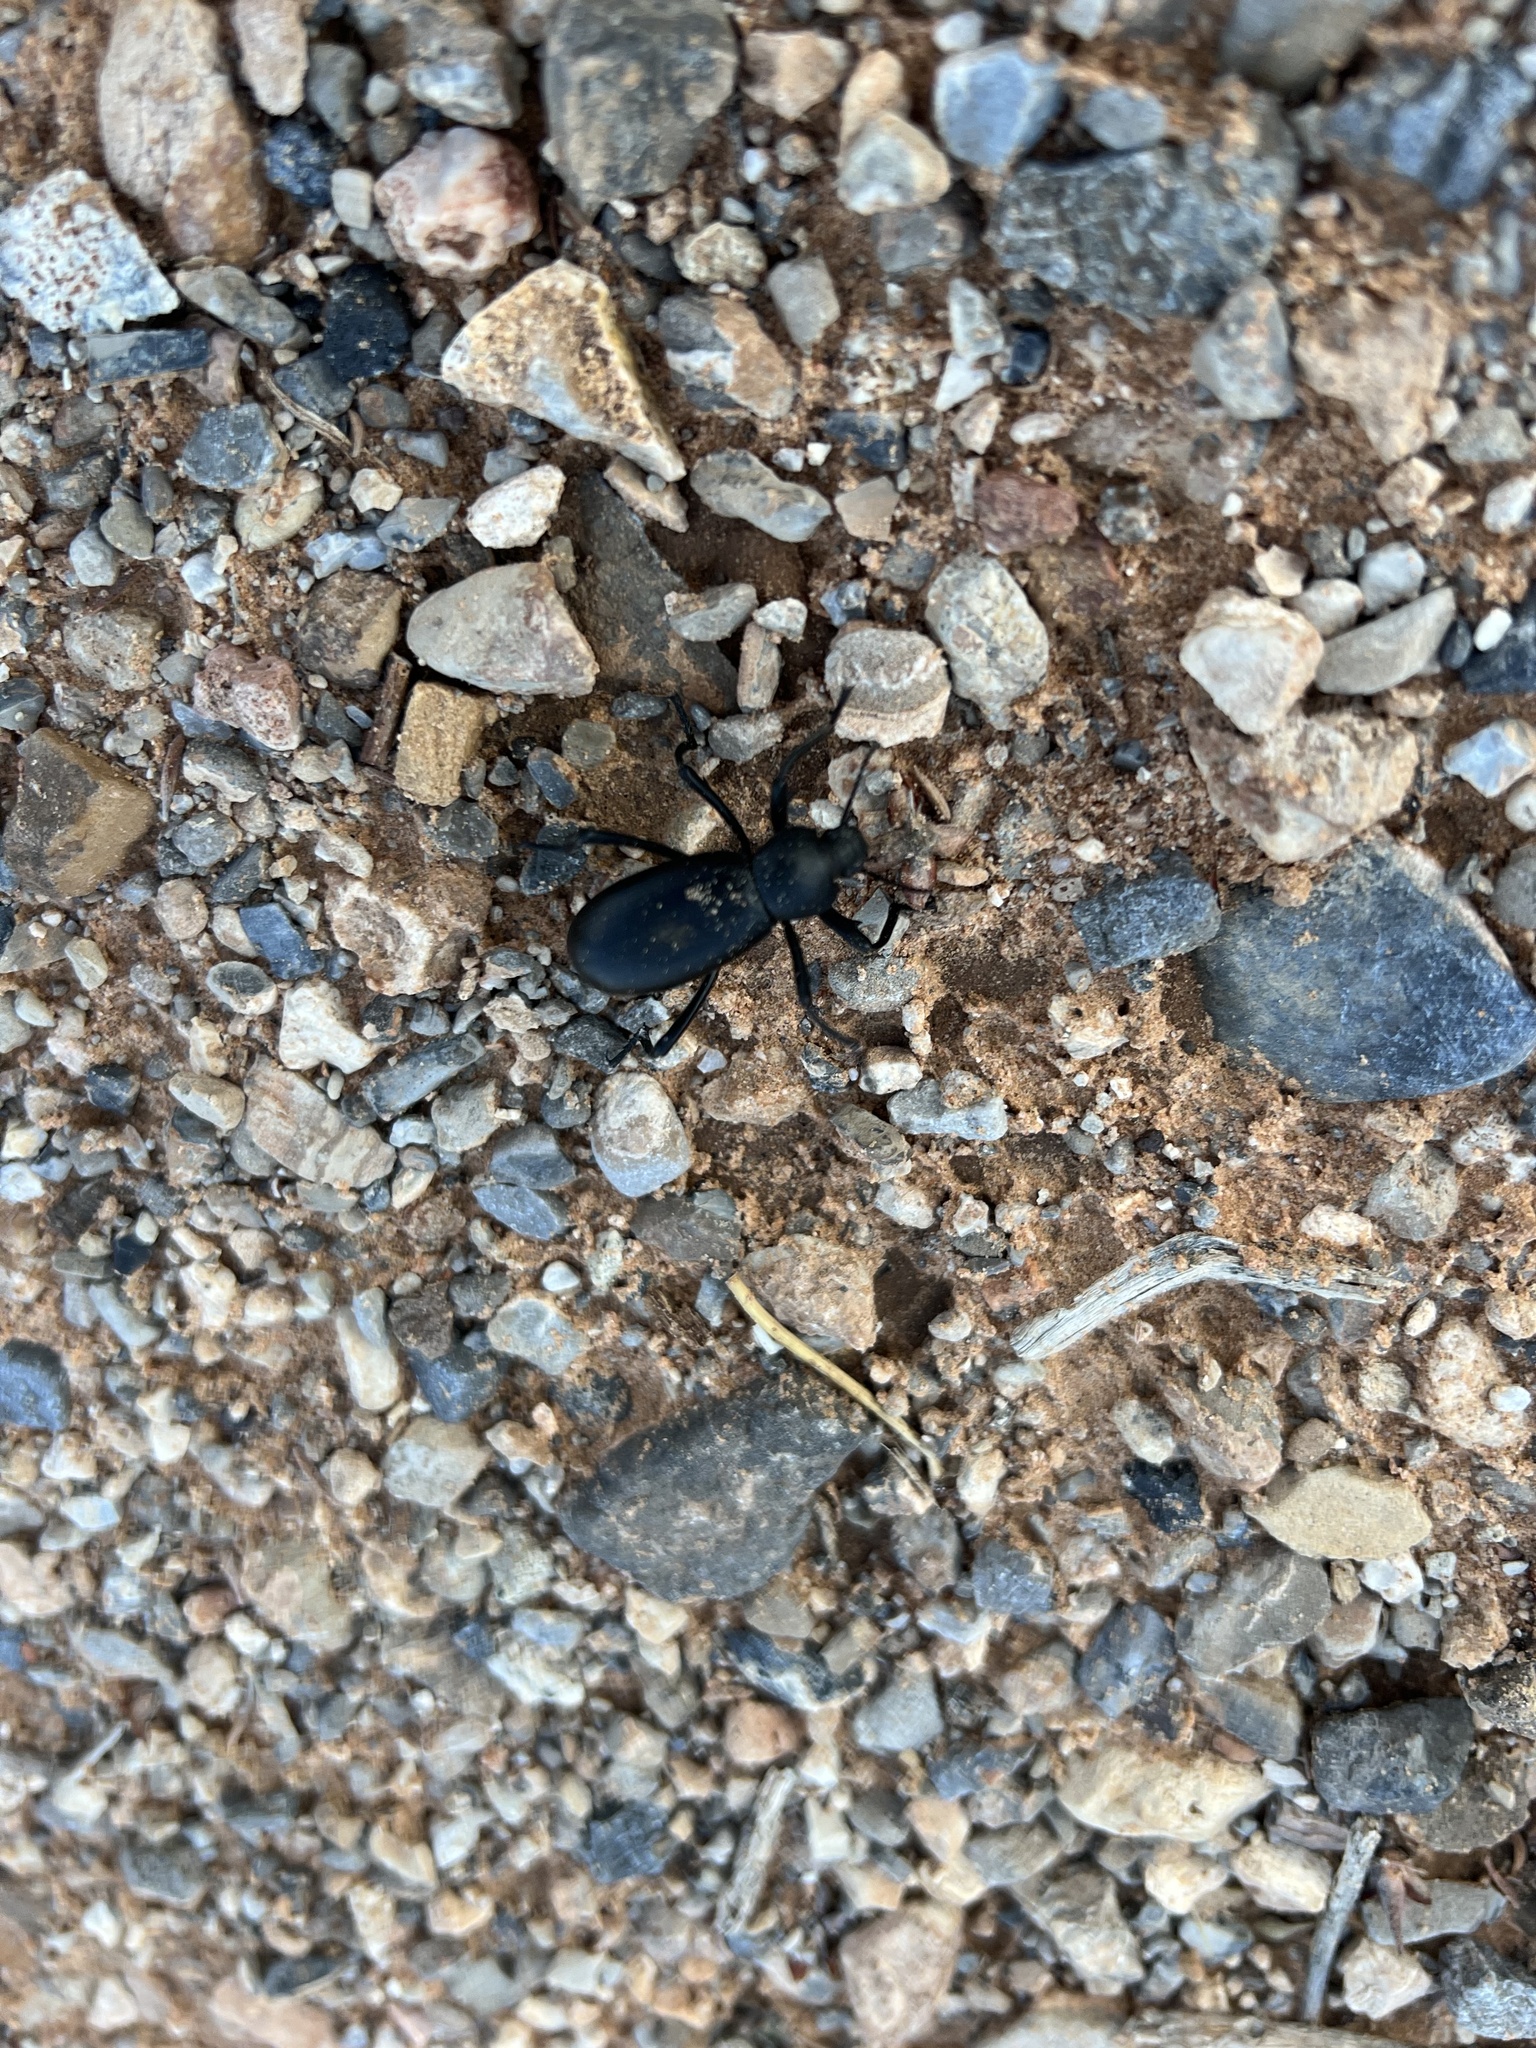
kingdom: Animalia
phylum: Arthropoda
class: Insecta
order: Coleoptera
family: Tenebrionidae
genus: Eleodes
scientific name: Eleodes armata
